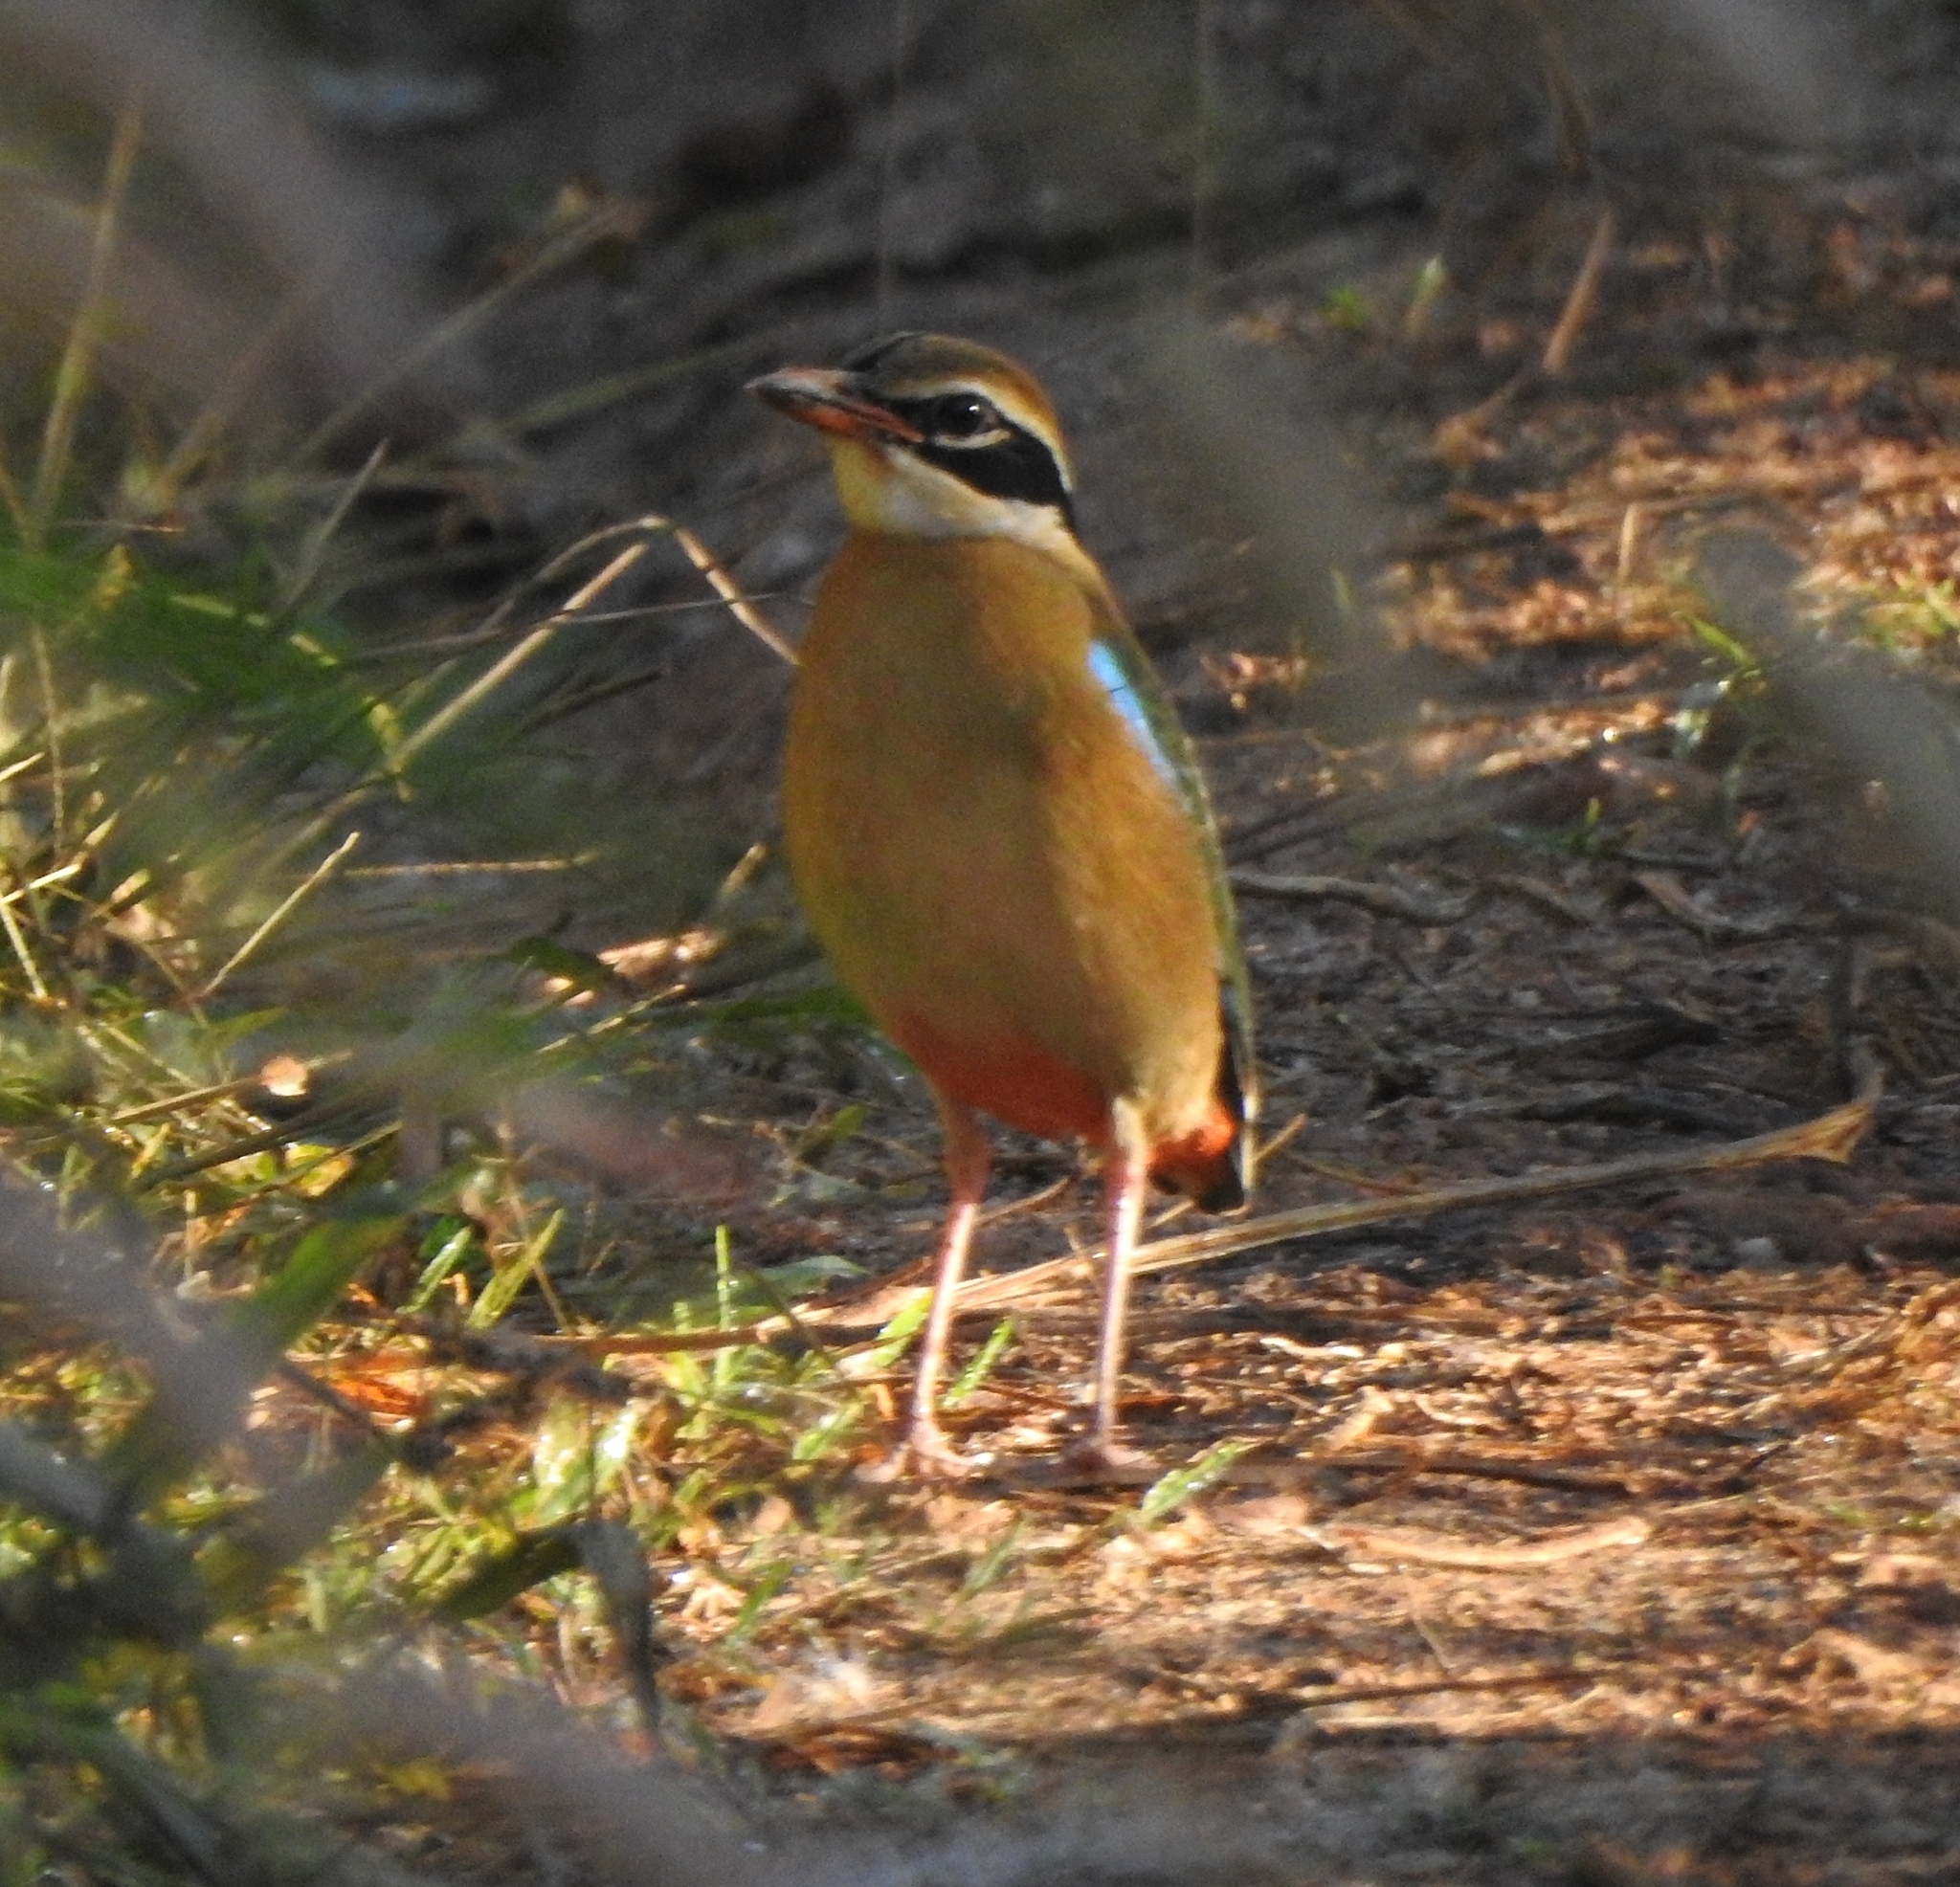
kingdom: Animalia
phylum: Chordata
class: Aves
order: Passeriformes
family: Pittidae
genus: Pitta
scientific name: Pitta brachyura
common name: Indian pitta
